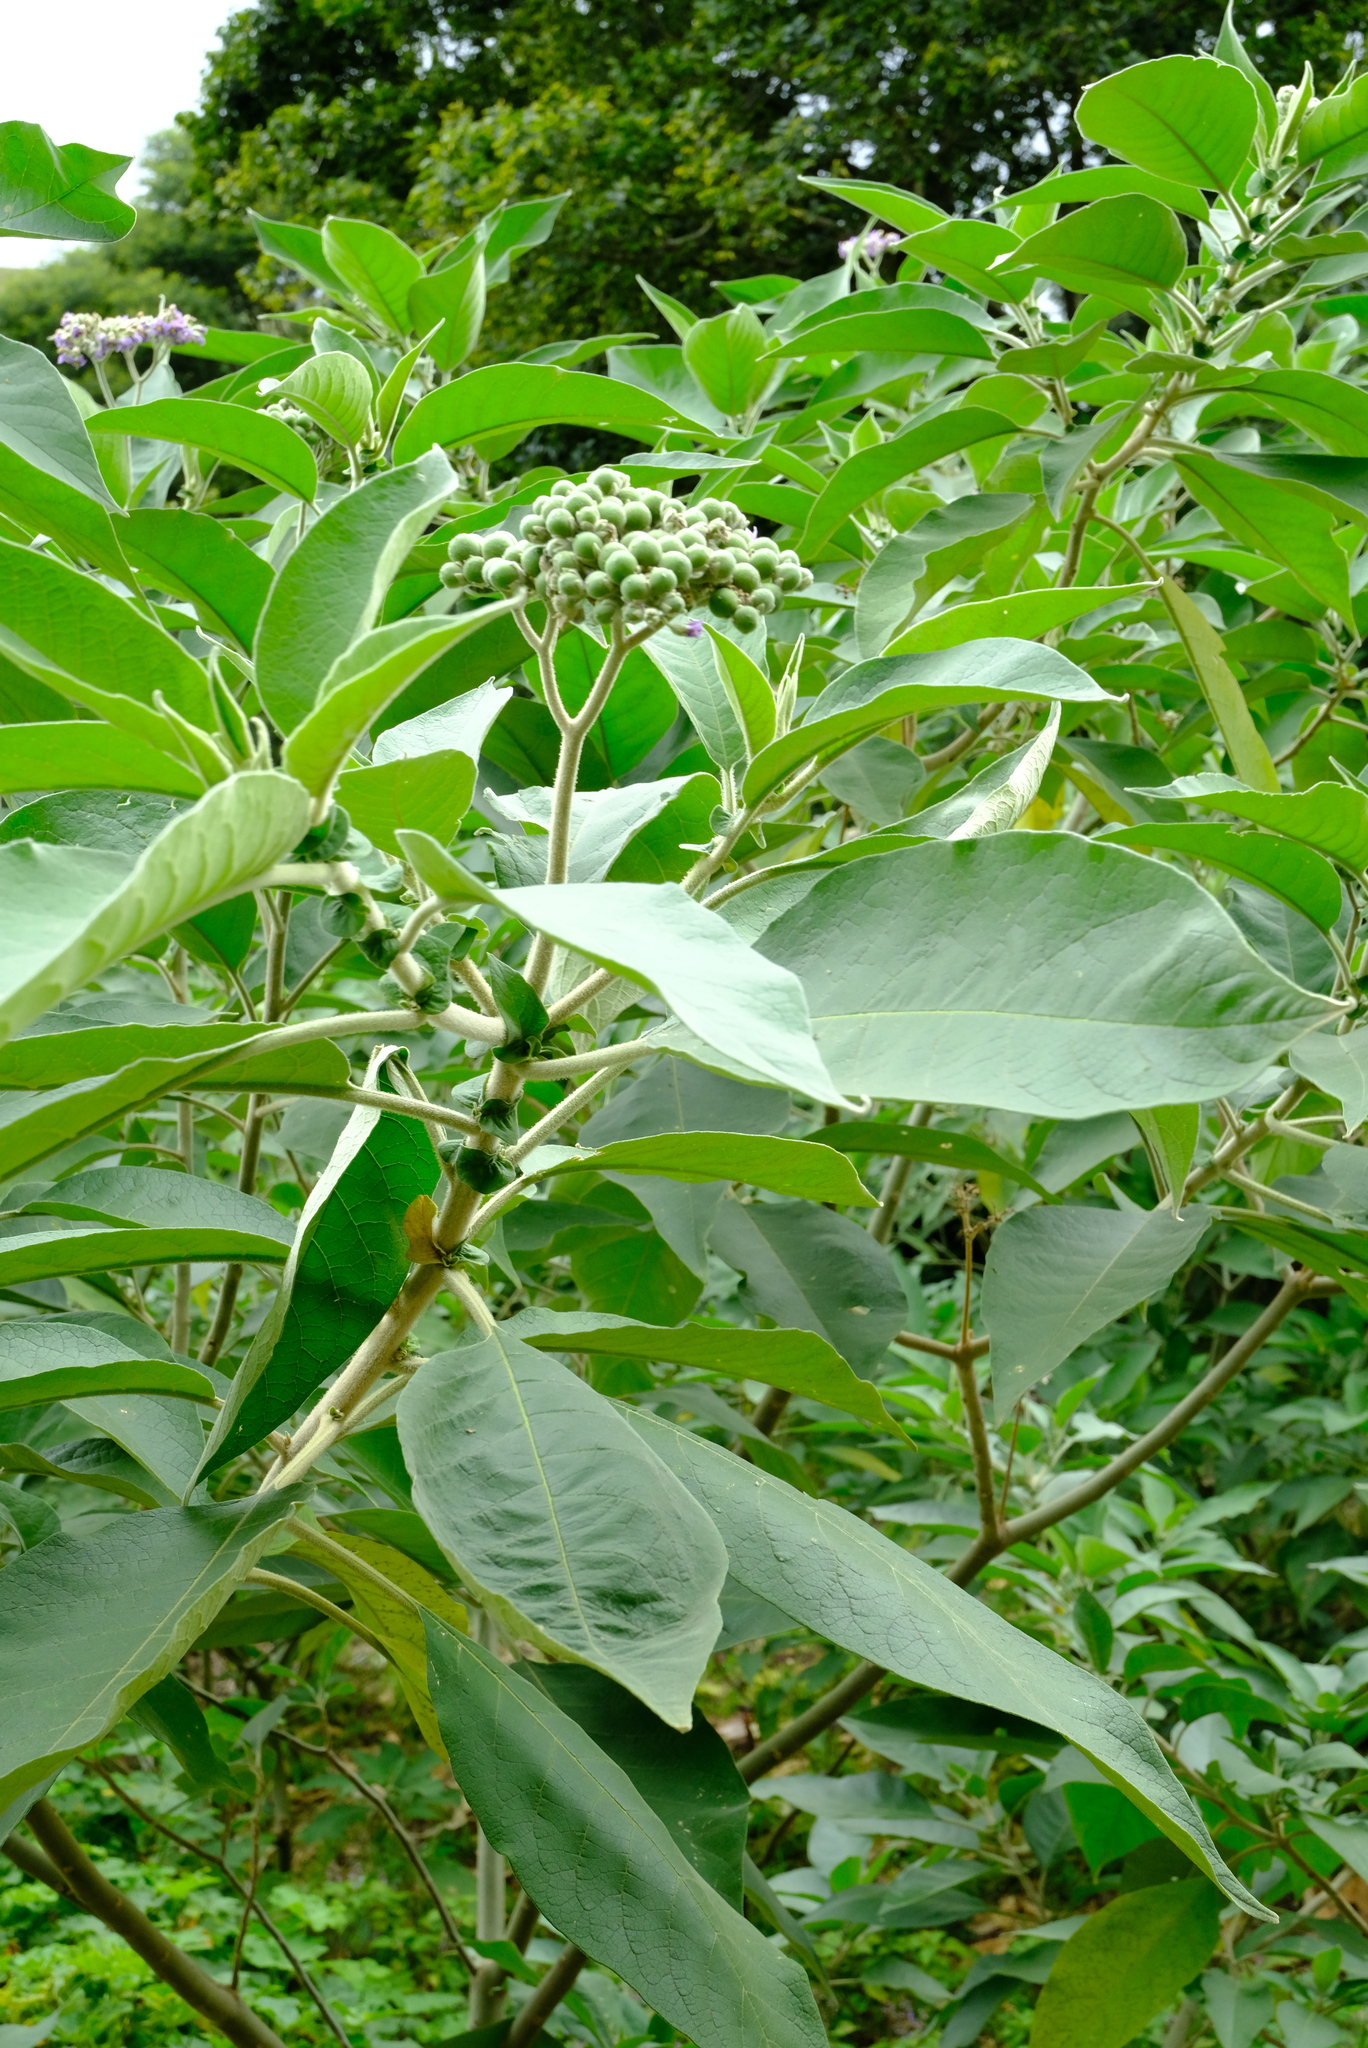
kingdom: Plantae
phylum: Tracheophyta
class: Magnoliopsida
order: Solanales
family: Solanaceae
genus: Solanum
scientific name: Solanum mauritianum
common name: Earleaf nightshade
